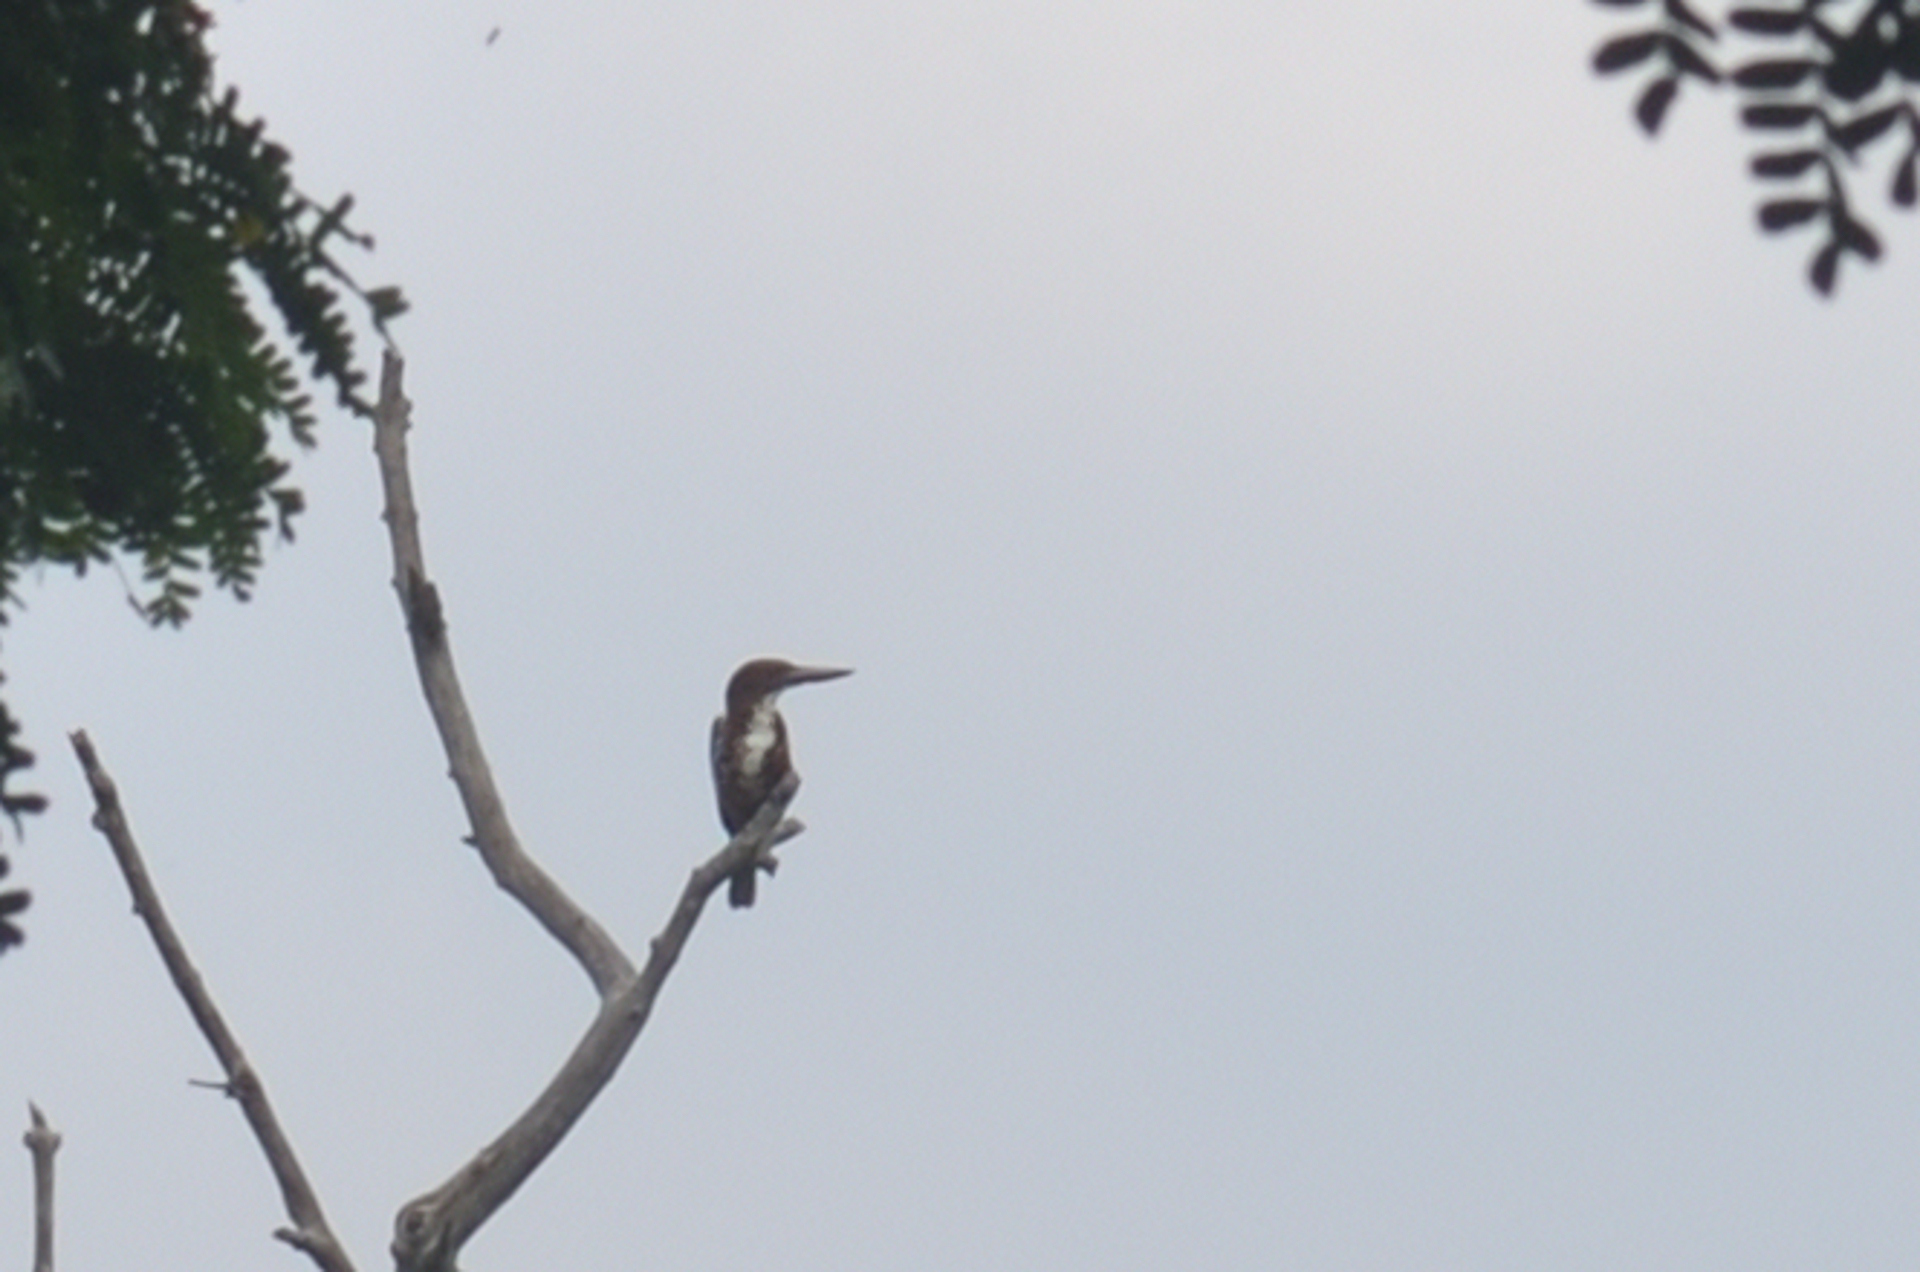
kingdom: Animalia
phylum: Chordata
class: Aves
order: Coraciiformes
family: Alcedinidae
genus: Halcyon
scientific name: Halcyon smyrnensis
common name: White-throated kingfisher
